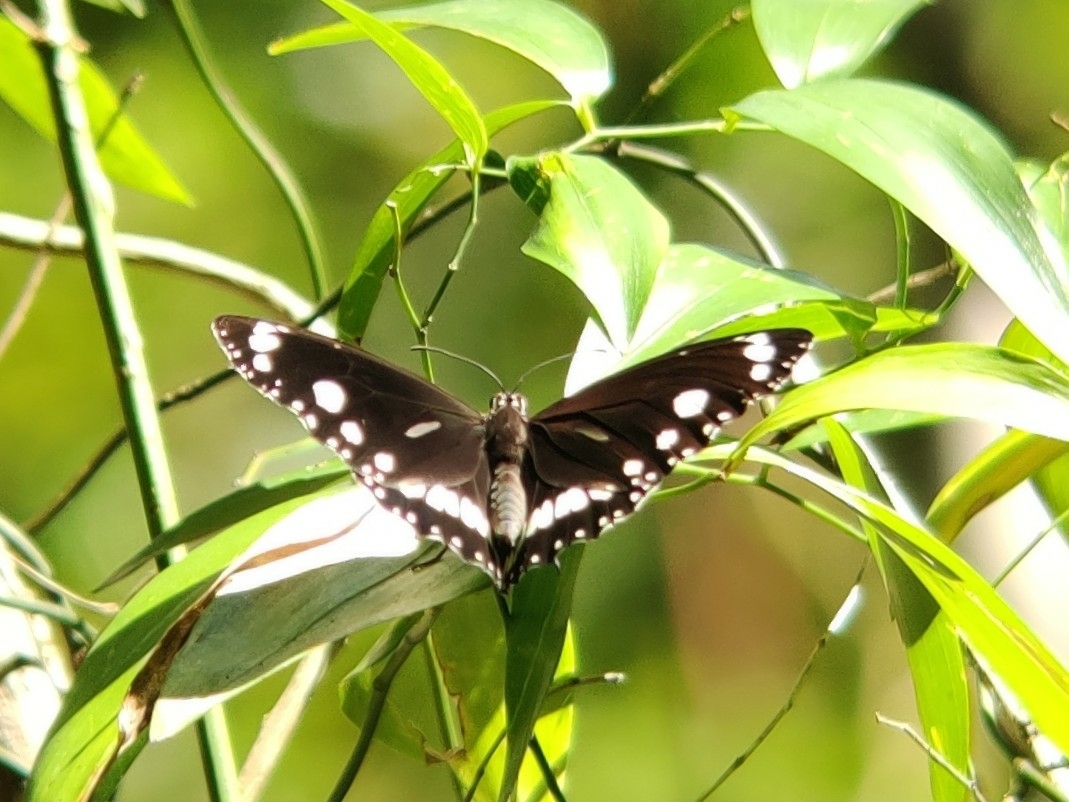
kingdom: Animalia
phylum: Arthropoda
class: Insecta
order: Lepidoptera
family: Nymphalidae
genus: Euploea
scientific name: Euploea core
